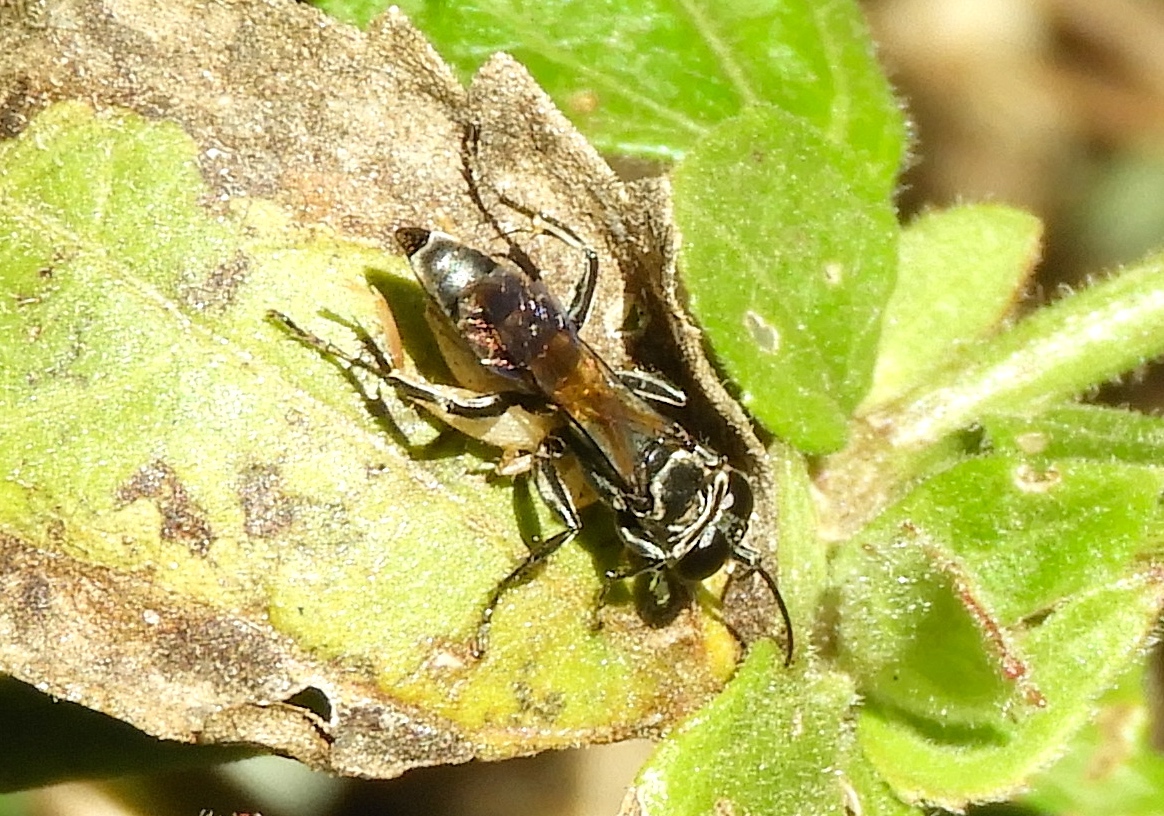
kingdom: Animalia
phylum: Arthropoda
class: Insecta
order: Hymenoptera
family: Crabronidae
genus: Larra
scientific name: Larra
